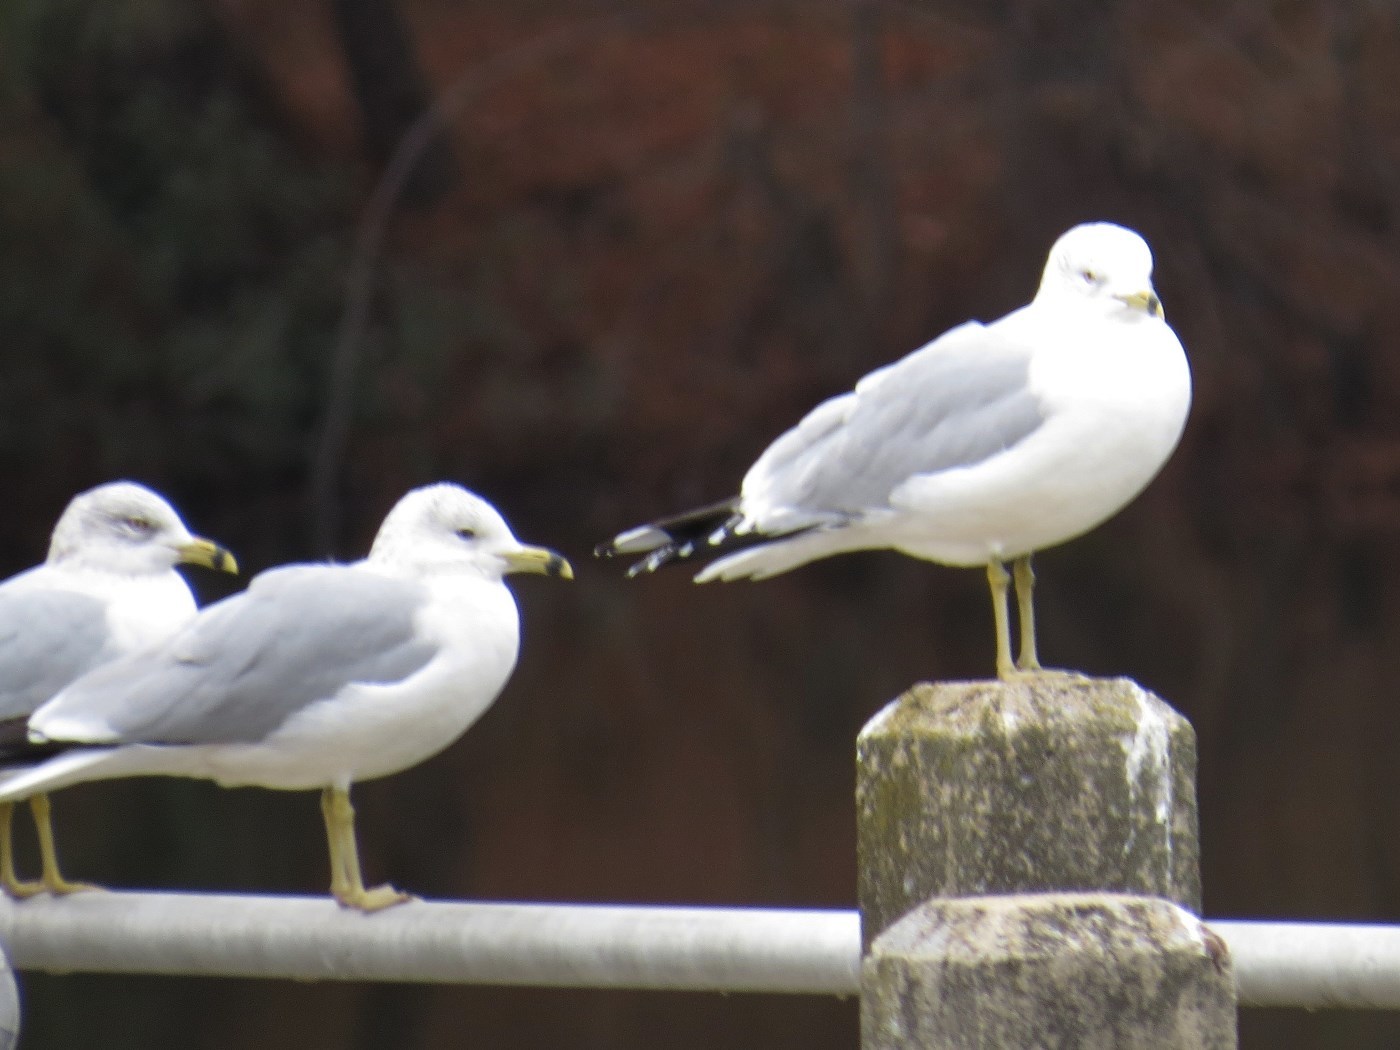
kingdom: Animalia
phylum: Chordata
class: Aves
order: Charadriiformes
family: Laridae
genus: Larus
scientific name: Larus delawarensis
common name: Ring-billed gull
